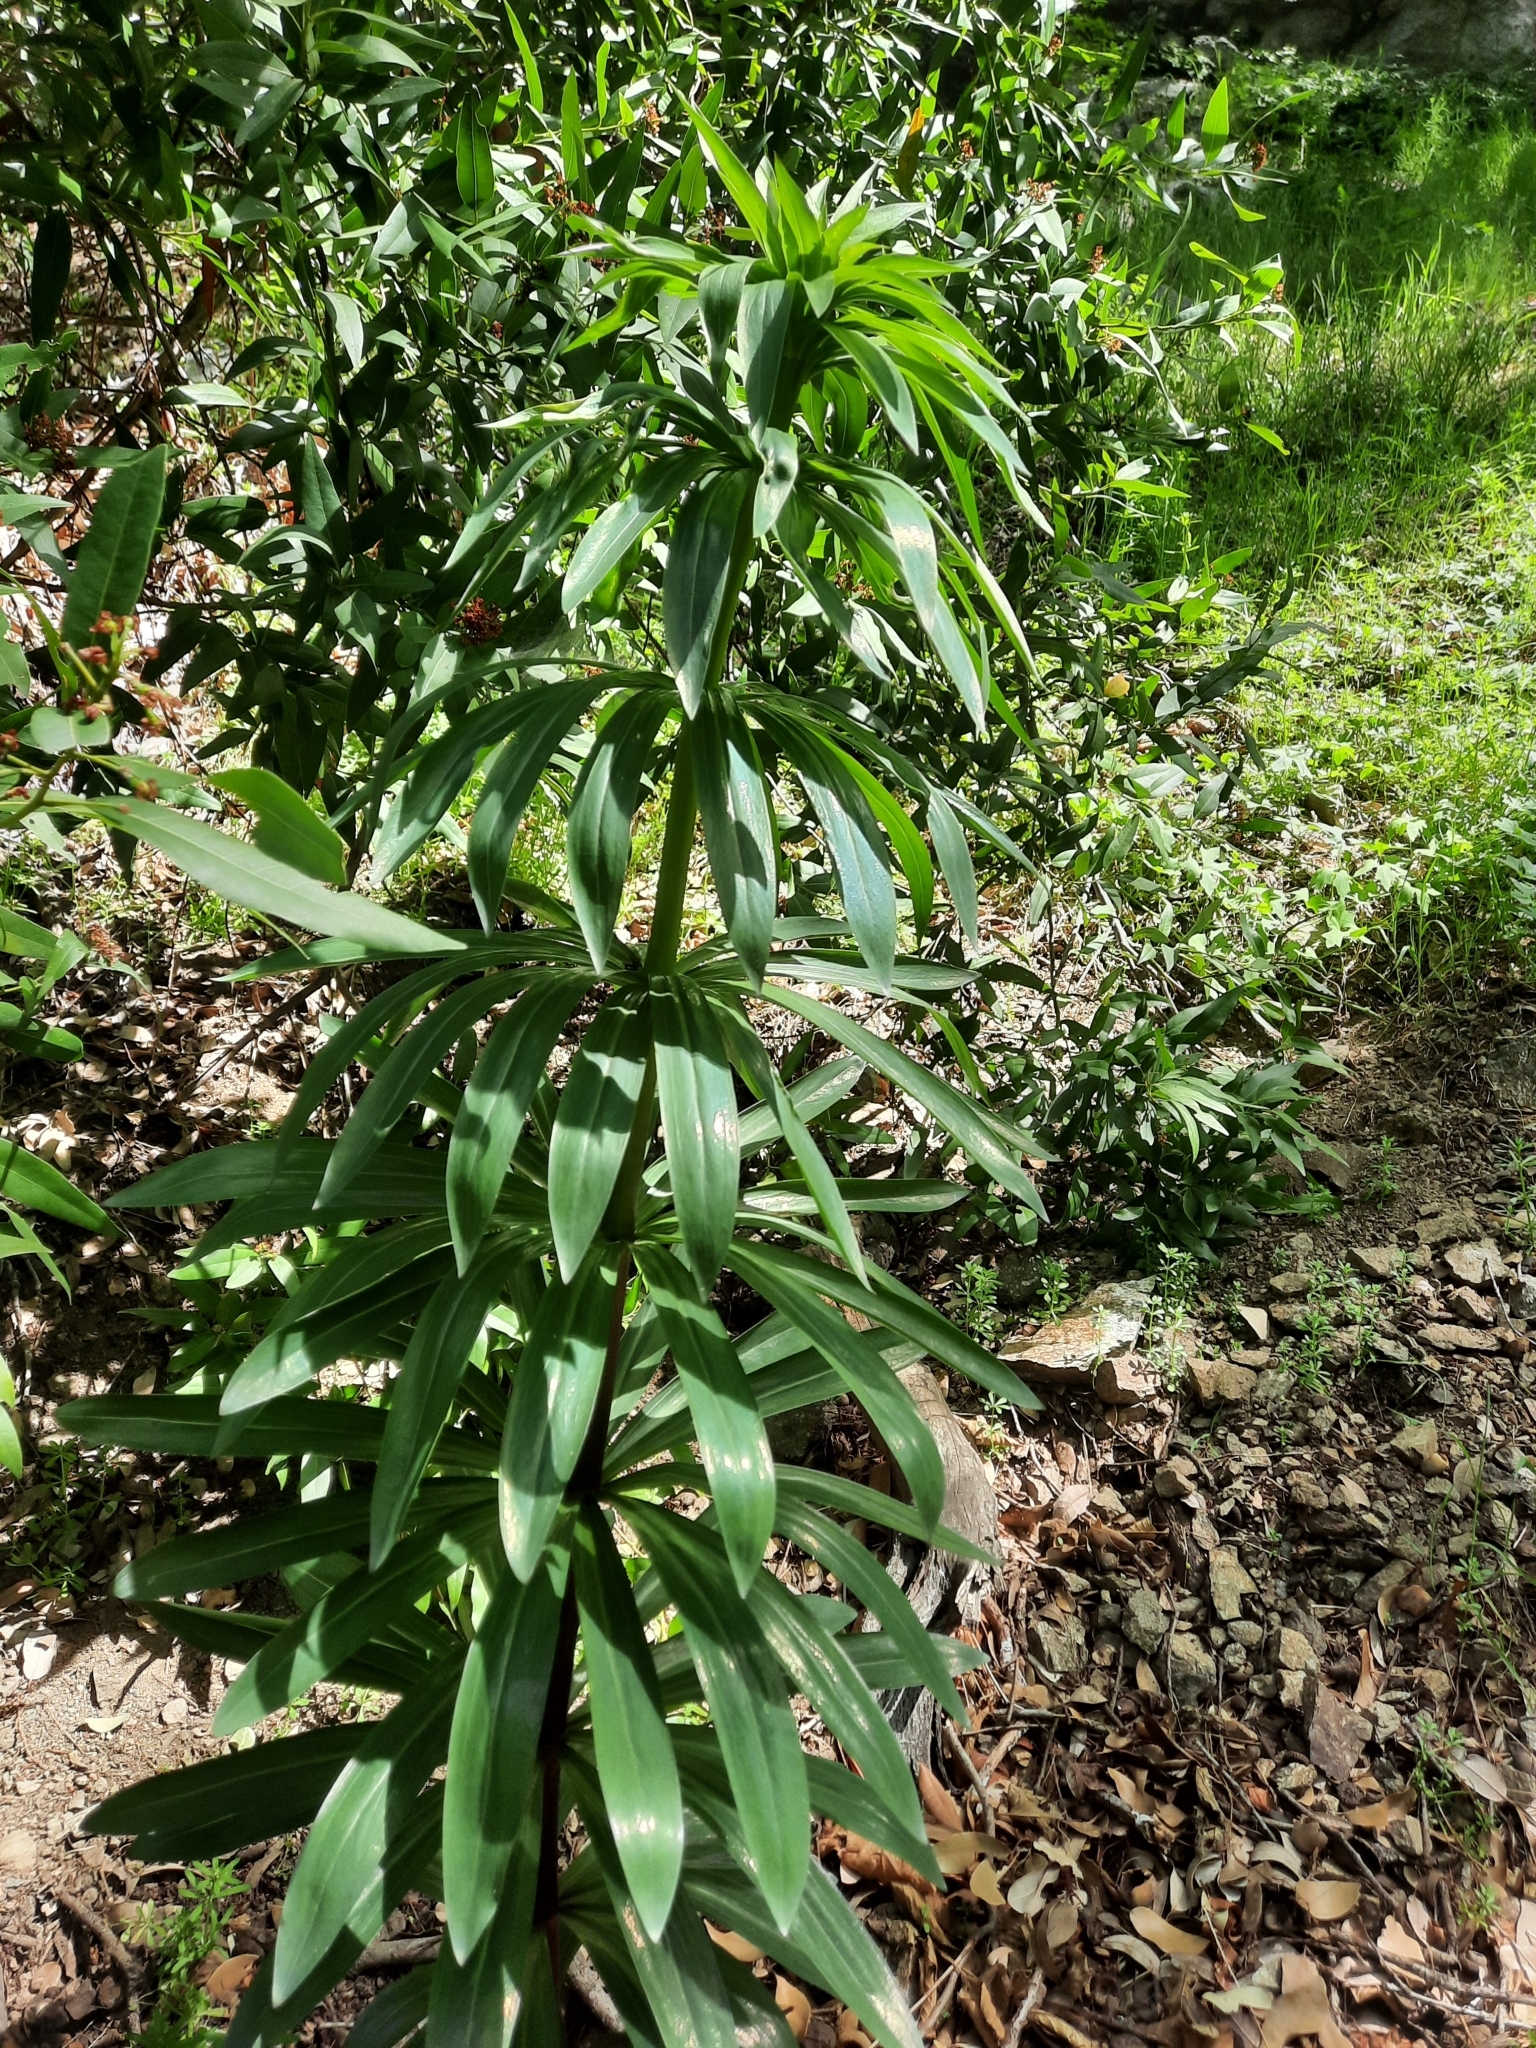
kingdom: Plantae
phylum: Tracheophyta
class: Liliopsida
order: Liliales
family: Liliaceae
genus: Lilium
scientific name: Lilium humboldtii
